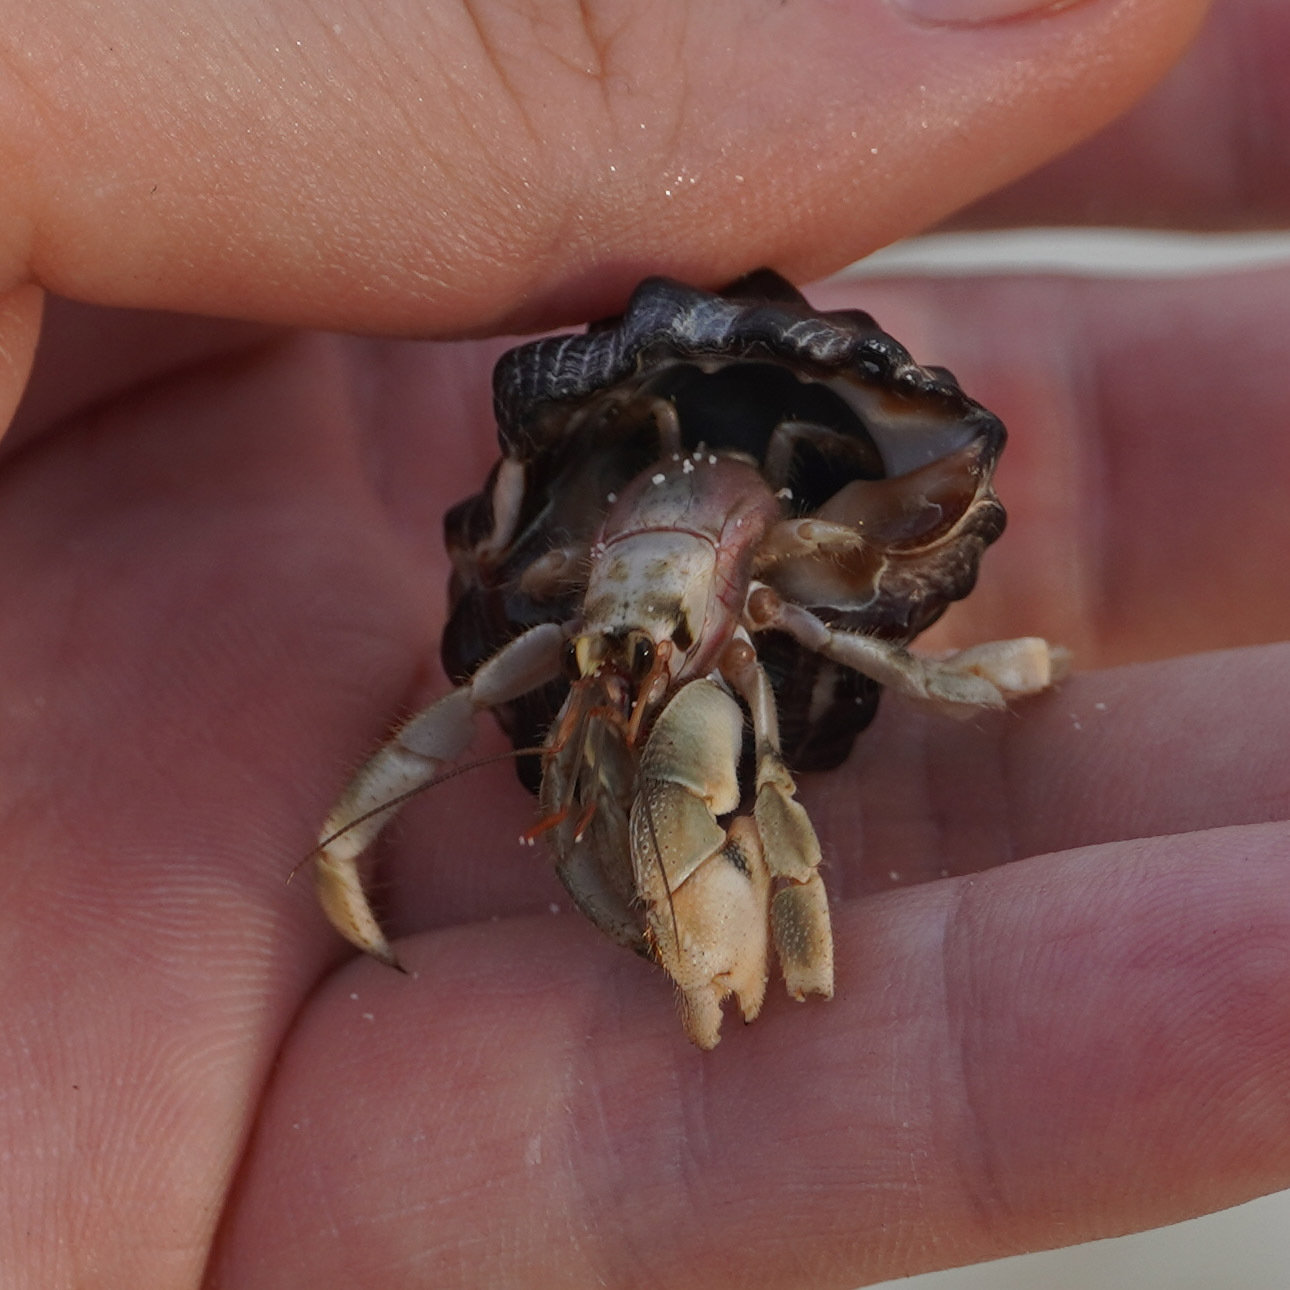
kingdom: Animalia
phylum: Arthropoda
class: Malacostraca
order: Decapoda
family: Coenobitidae
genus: Coenobita
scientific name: Coenobita rugosus
